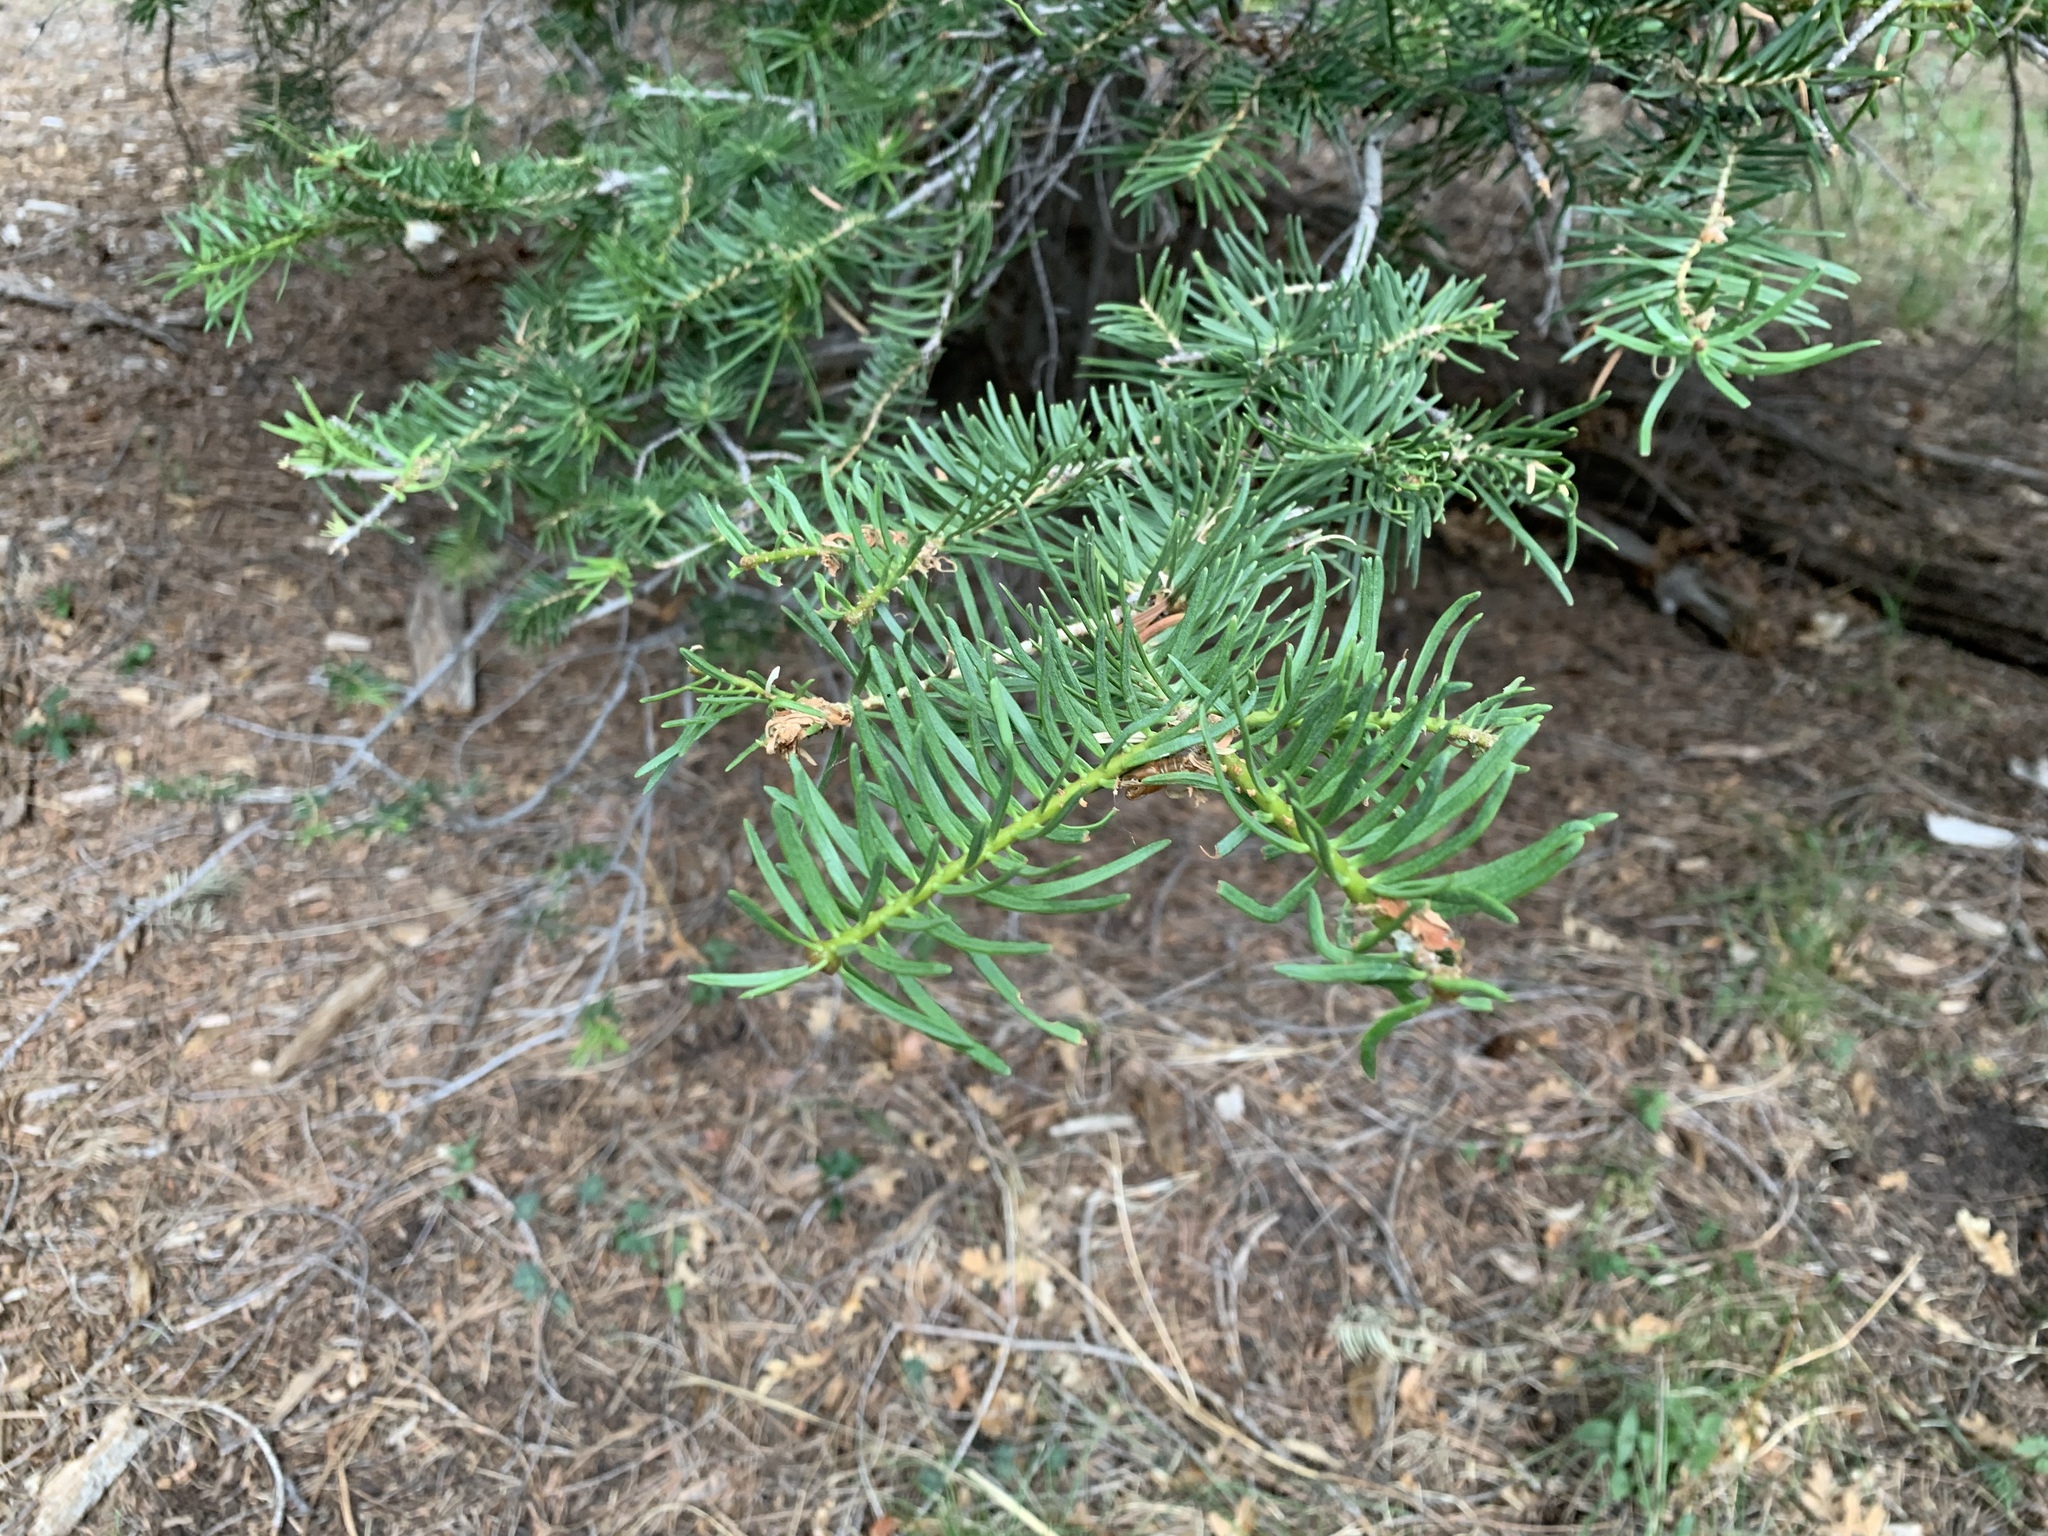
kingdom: Plantae
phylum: Tracheophyta
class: Pinopsida
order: Pinales
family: Pinaceae
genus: Abies
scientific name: Abies concolor
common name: Colorado fir
